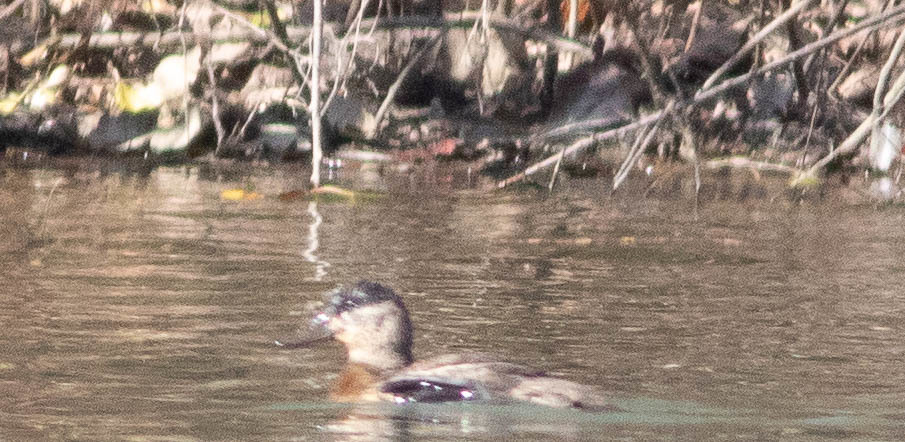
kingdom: Animalia
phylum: Chordata
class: Aves
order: Anseriformes
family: Anatidae
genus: Oxyura
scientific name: Oxyura jamaicensis
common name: Ruddy duck
